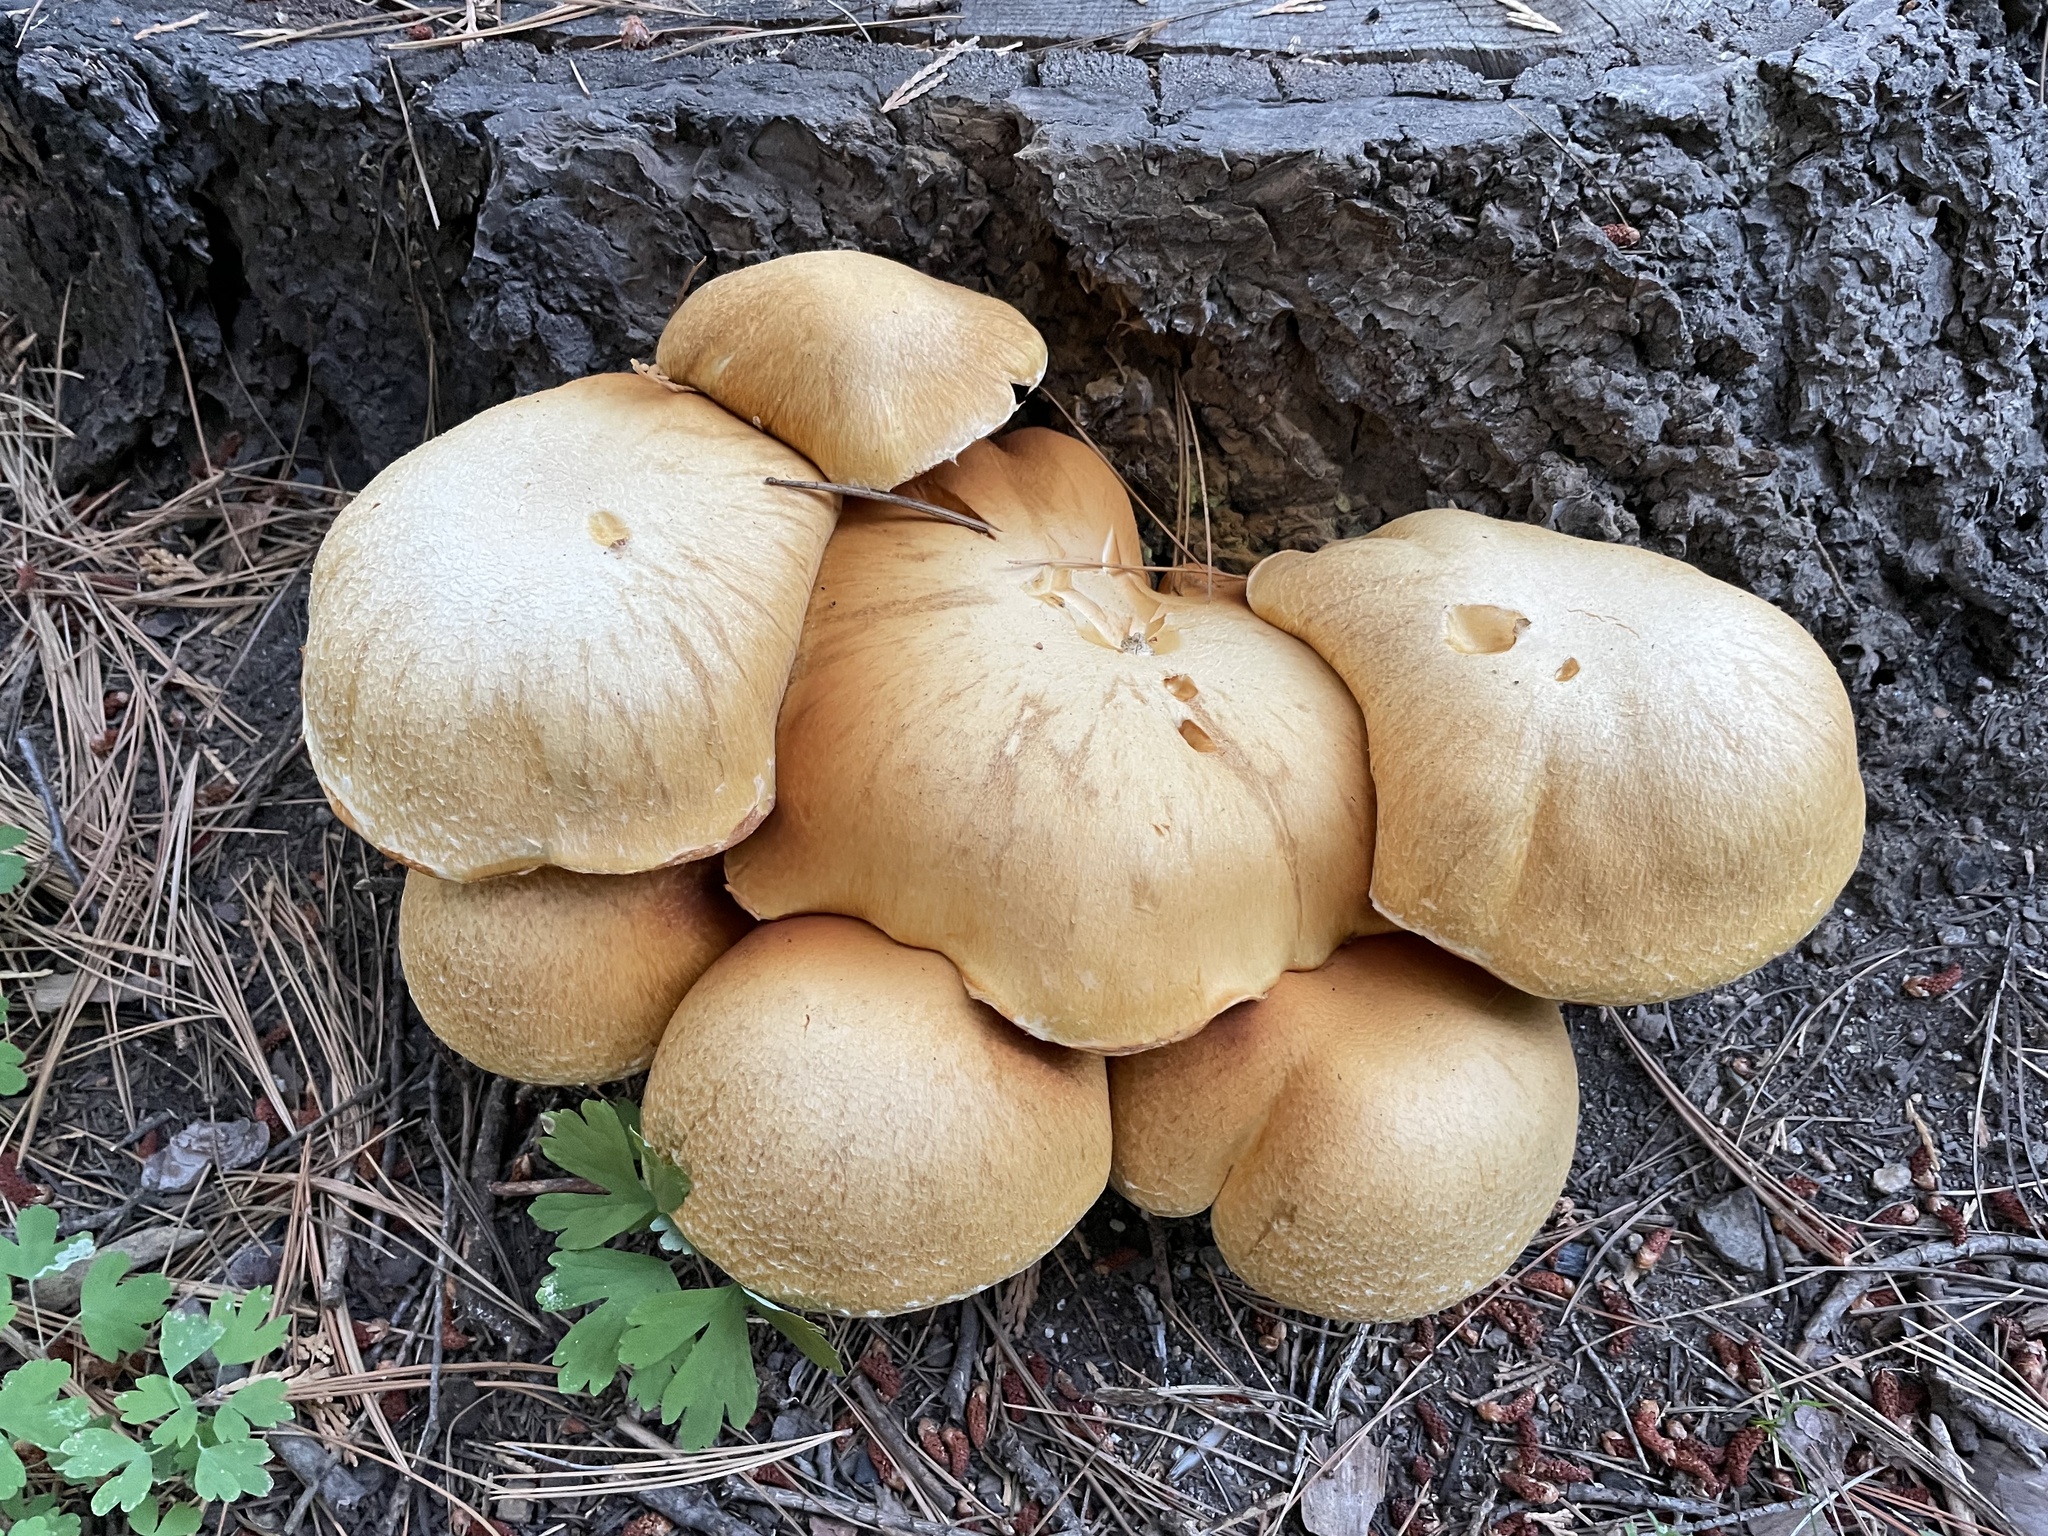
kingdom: Fungi
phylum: Basidiomycota
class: Agaricomycetes
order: Agaricales
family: Hymenogastraceae
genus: Gymnopilus
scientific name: Gymnopilus ventricosus
